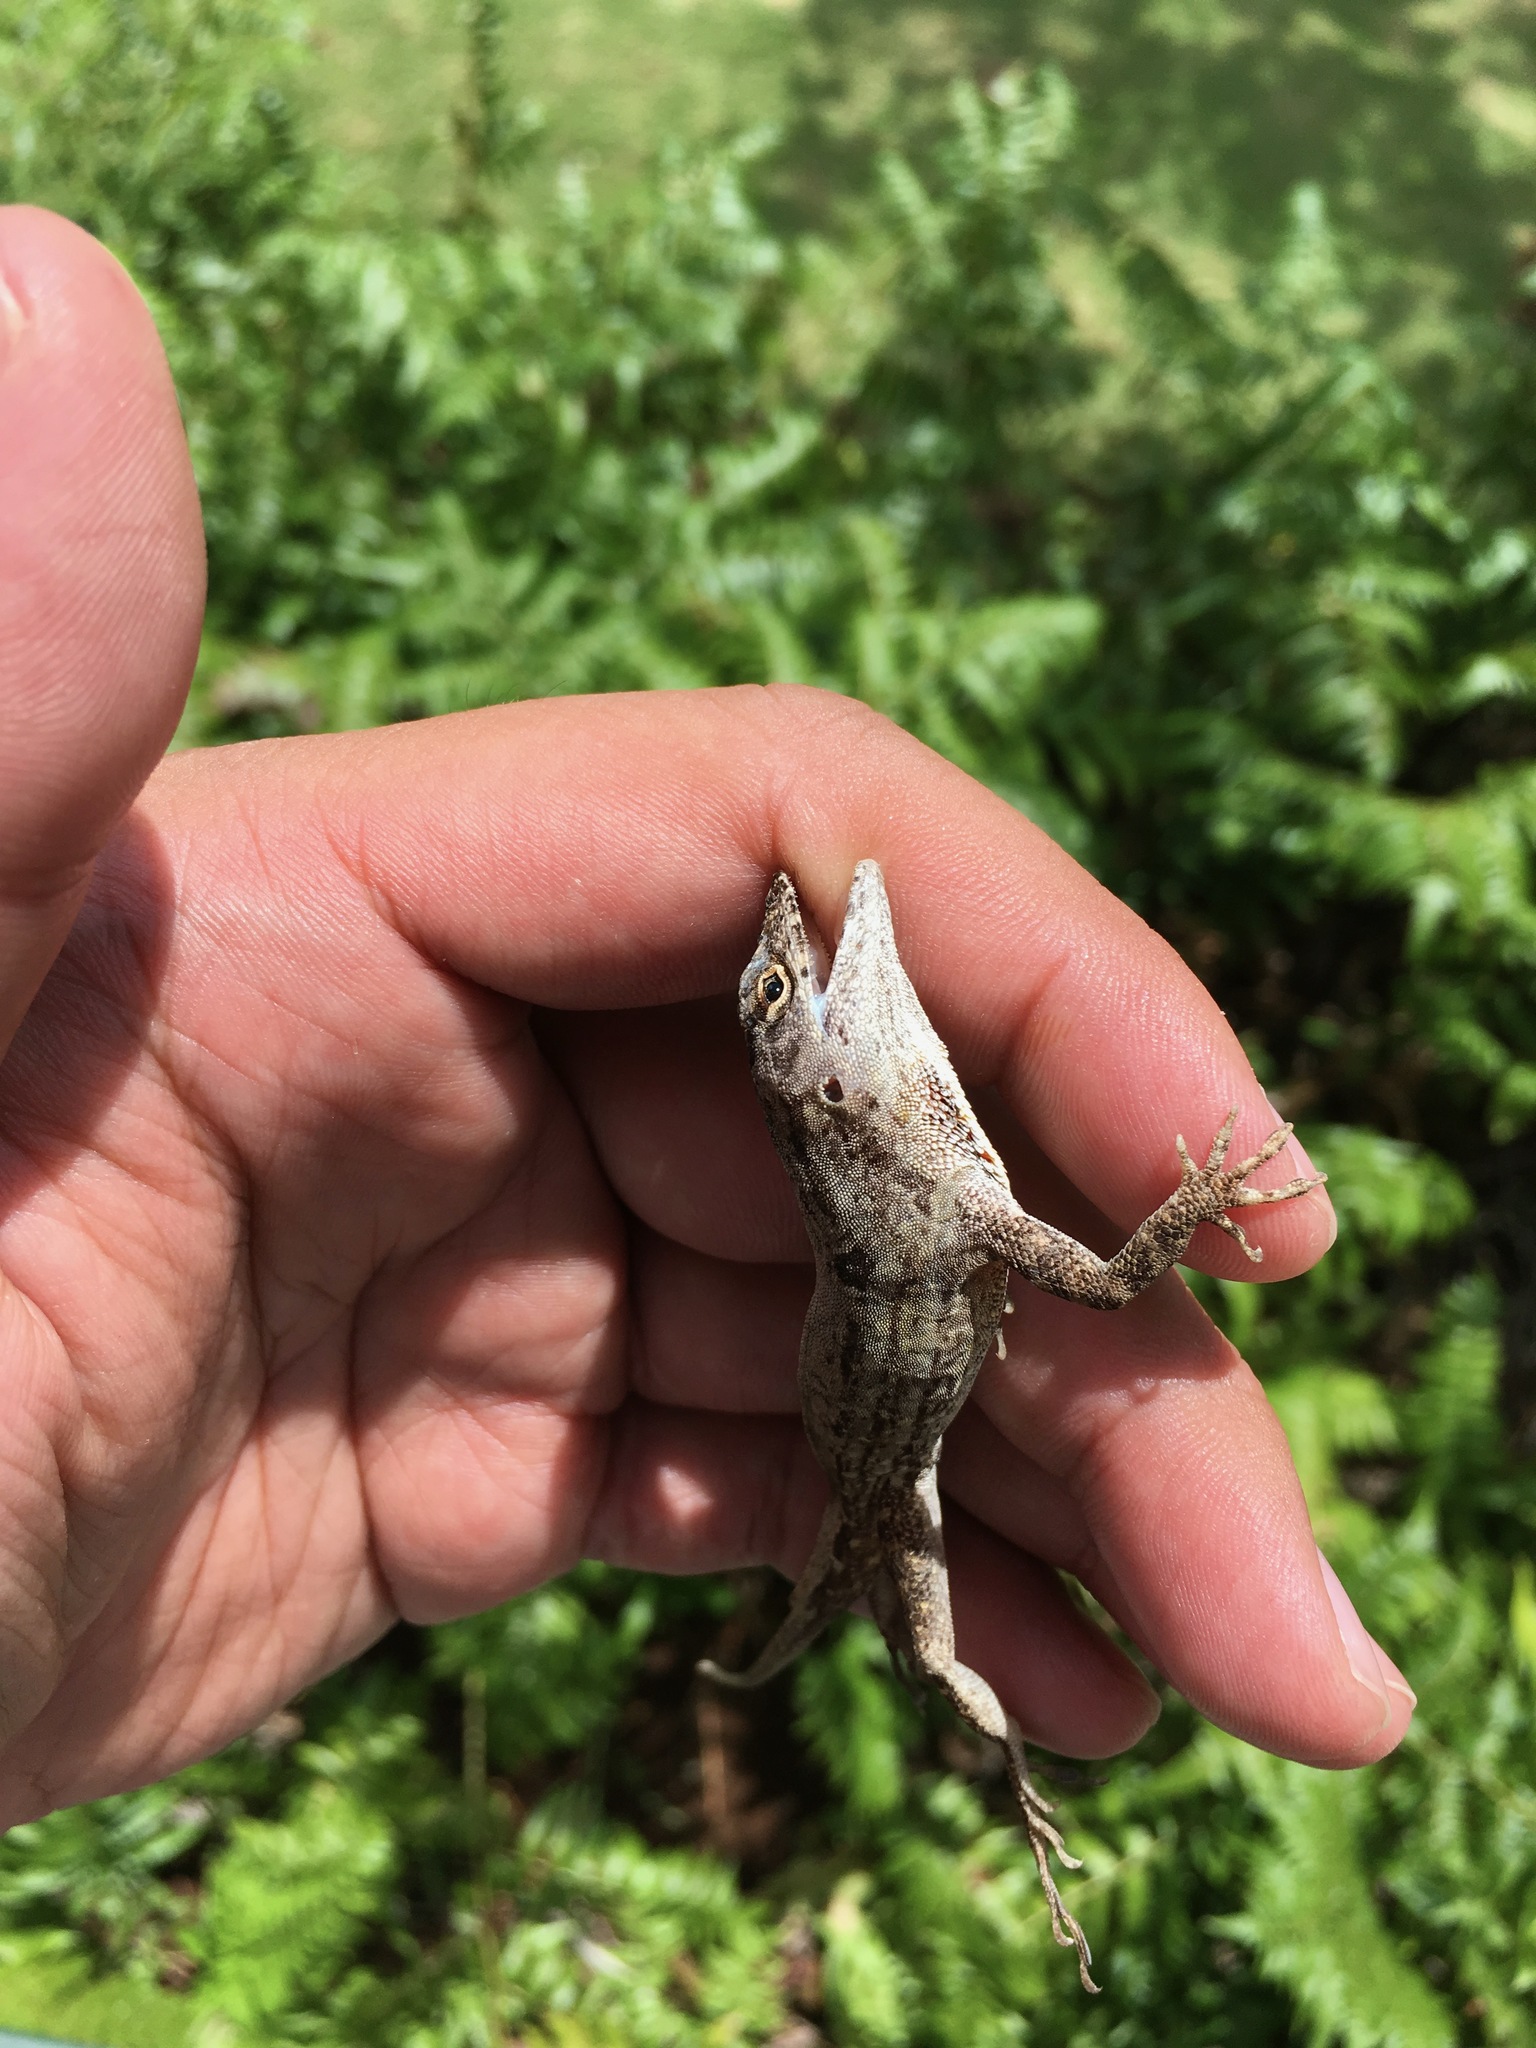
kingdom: Animalia
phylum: Chordata
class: Squamata
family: Dactyloidae
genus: Anolis
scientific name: Anolis sagrei
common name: Brown anole
